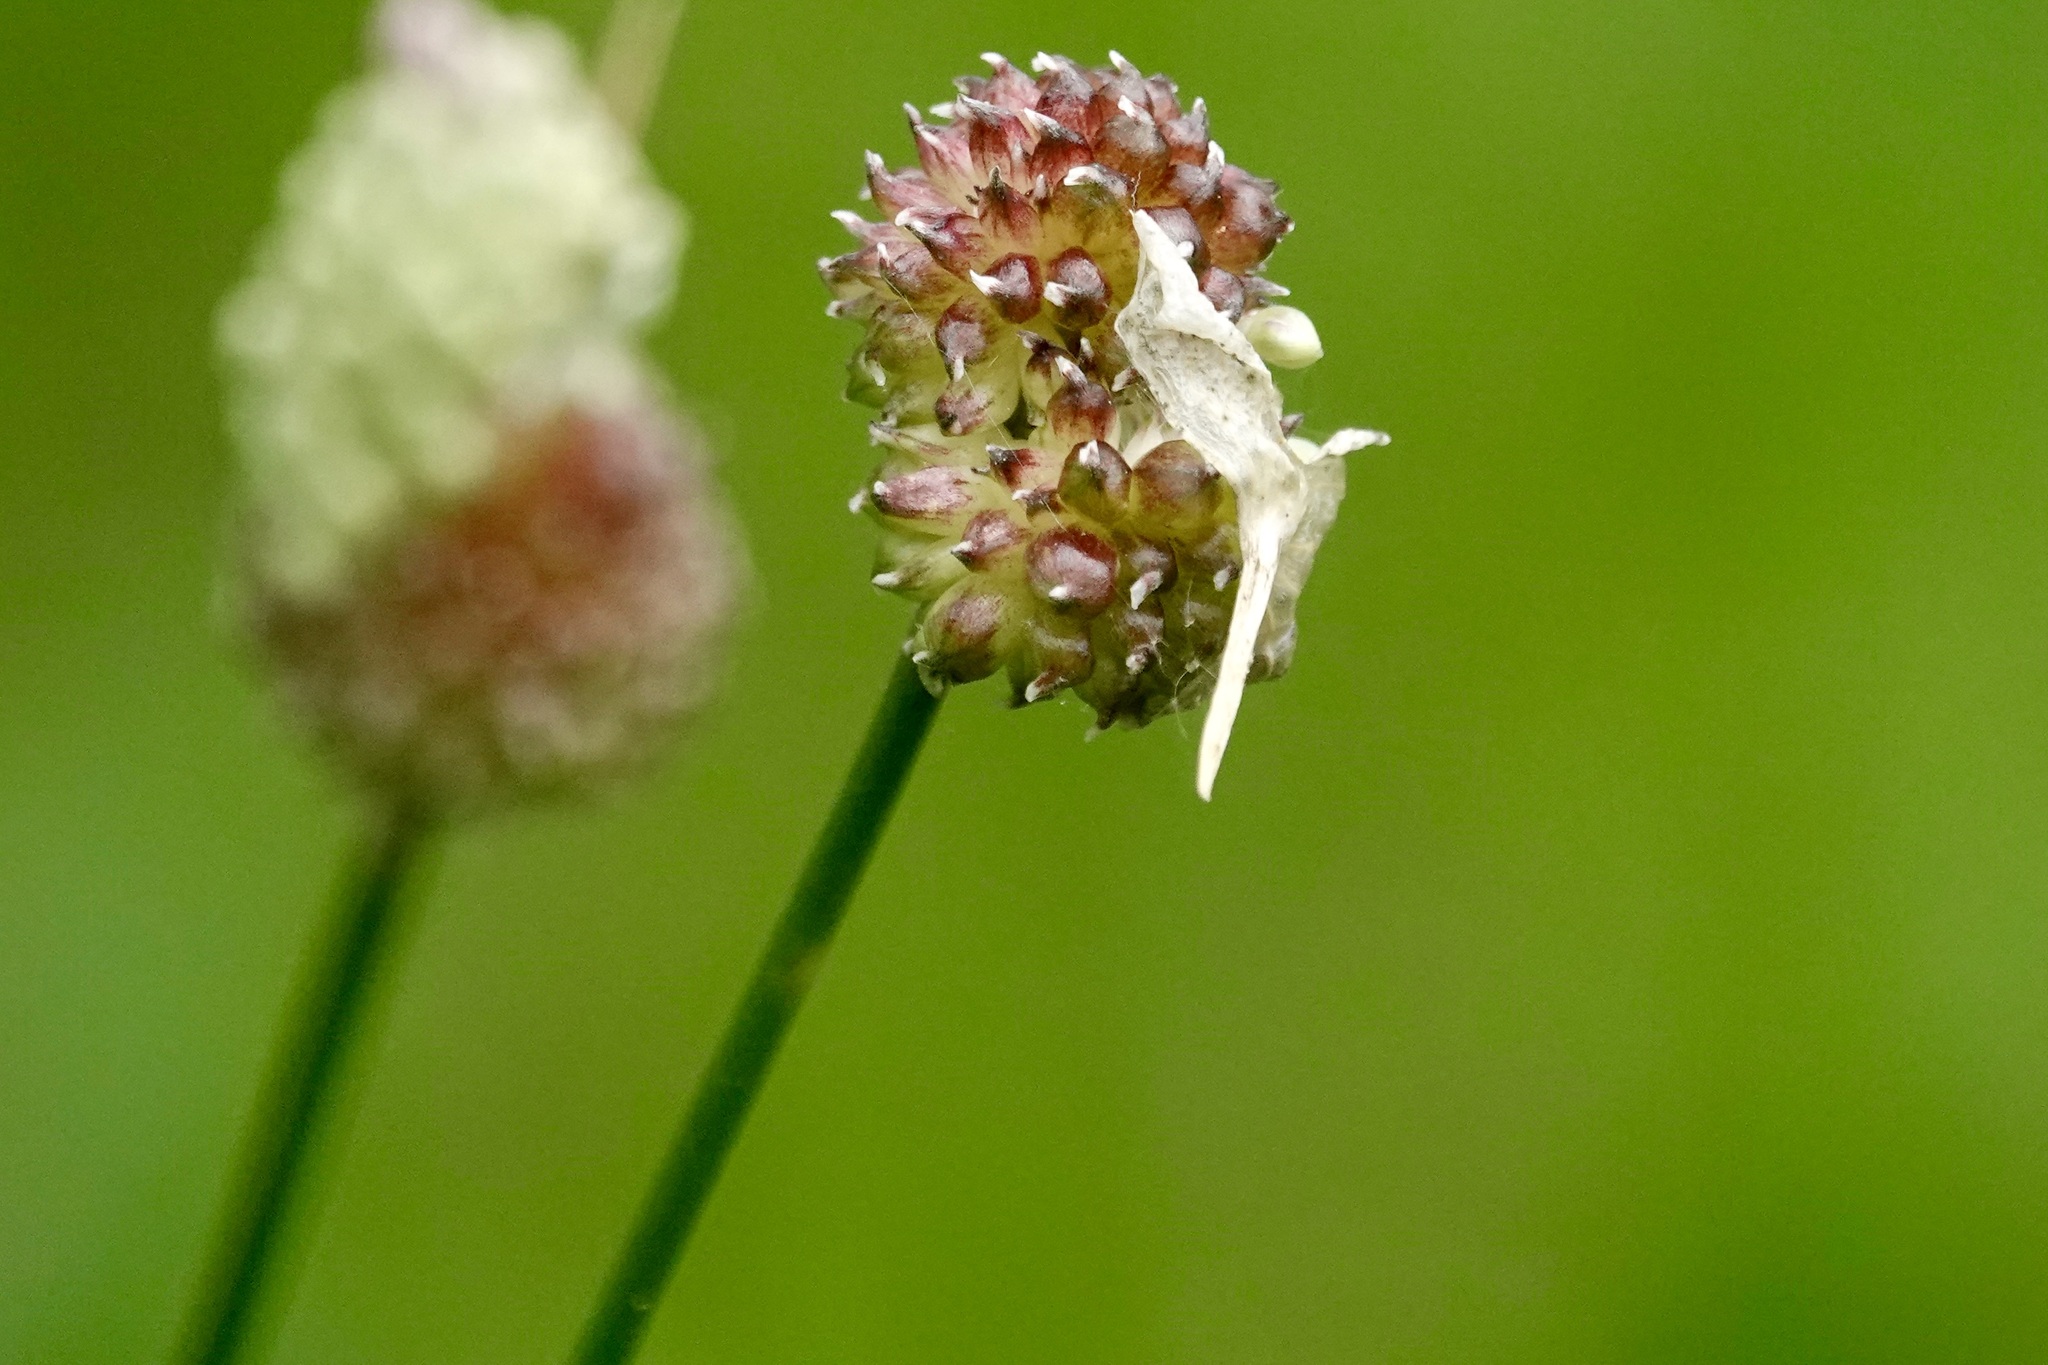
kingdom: Plantae
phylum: Tracheophyta
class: Liliopsida
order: Asparagales
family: Amaryllidaceae
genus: Allium
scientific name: Allium vineale
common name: Crow garlic
